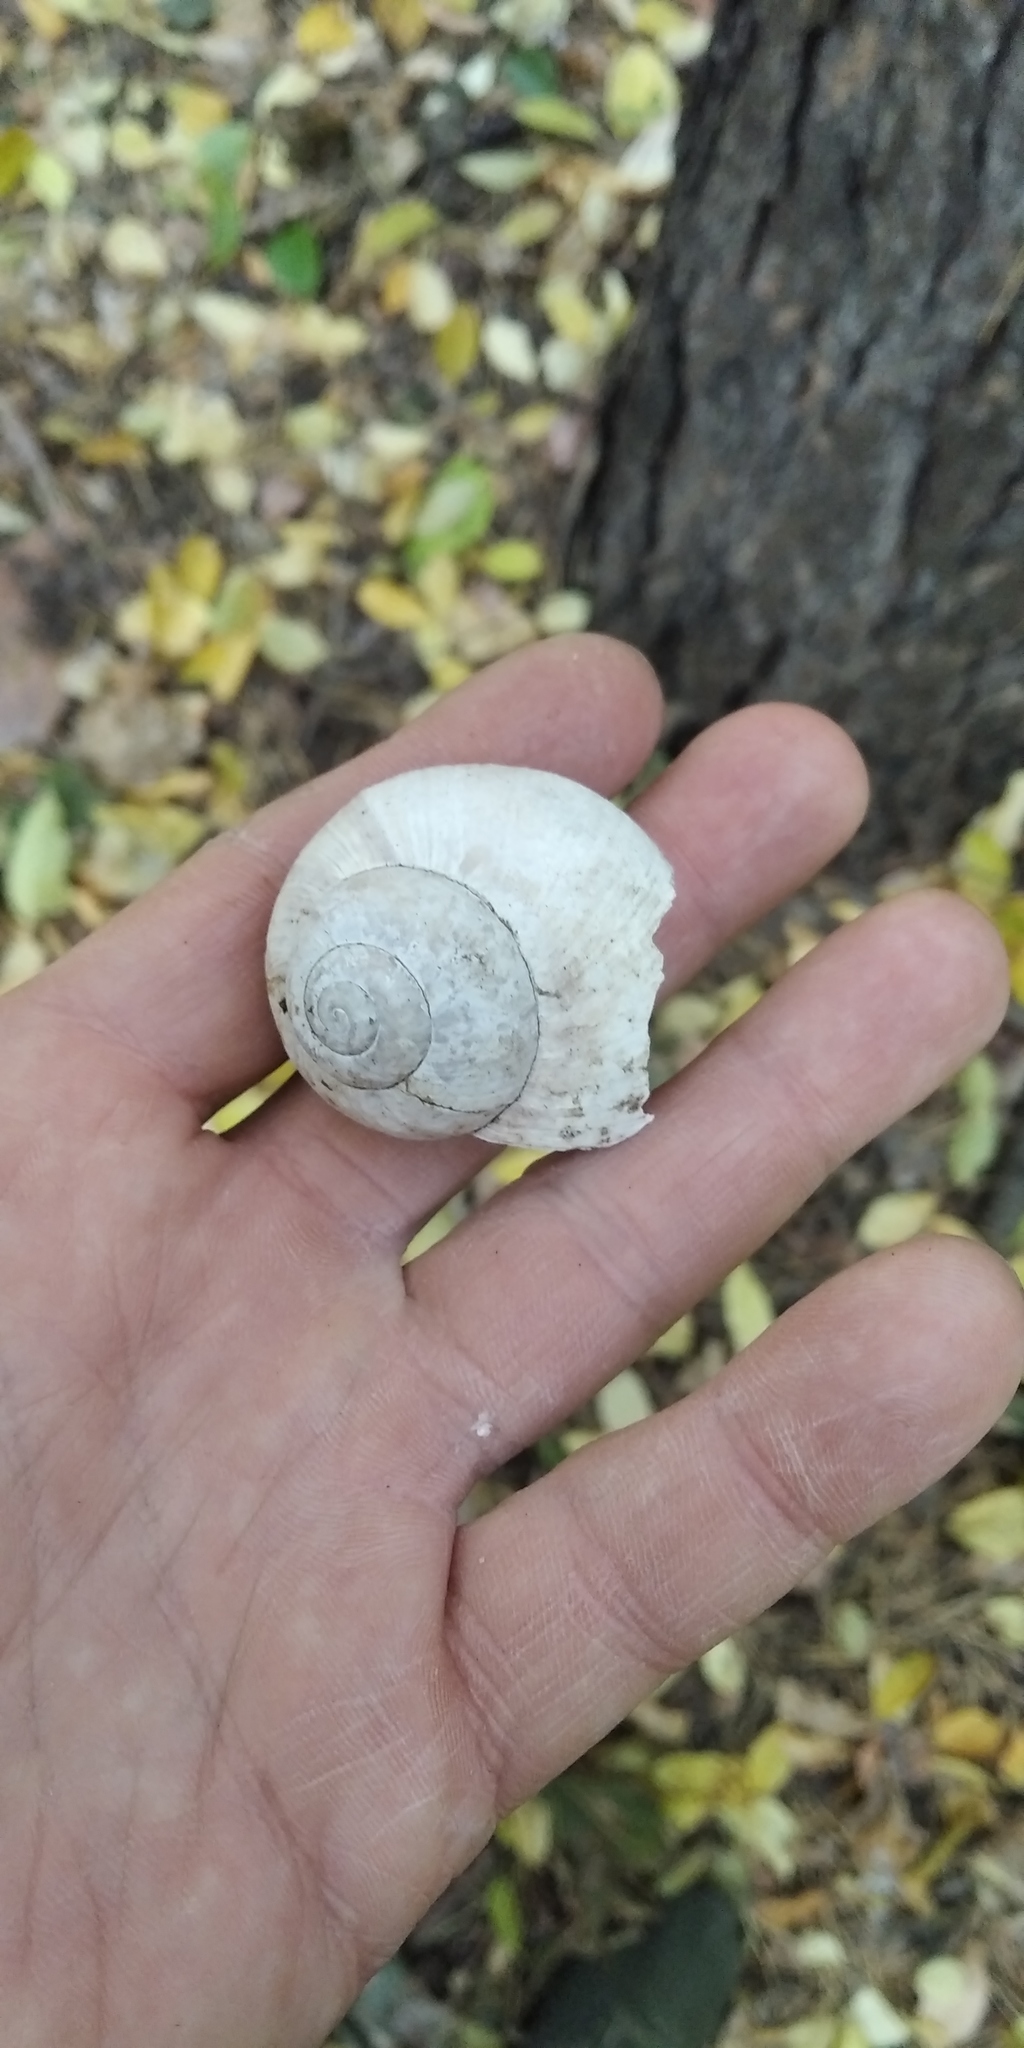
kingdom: Animalia
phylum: Mollusca
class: Gastropoda
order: Stylommatophora
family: Helicidae
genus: Helix
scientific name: Helix pomatia
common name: Roman snail
